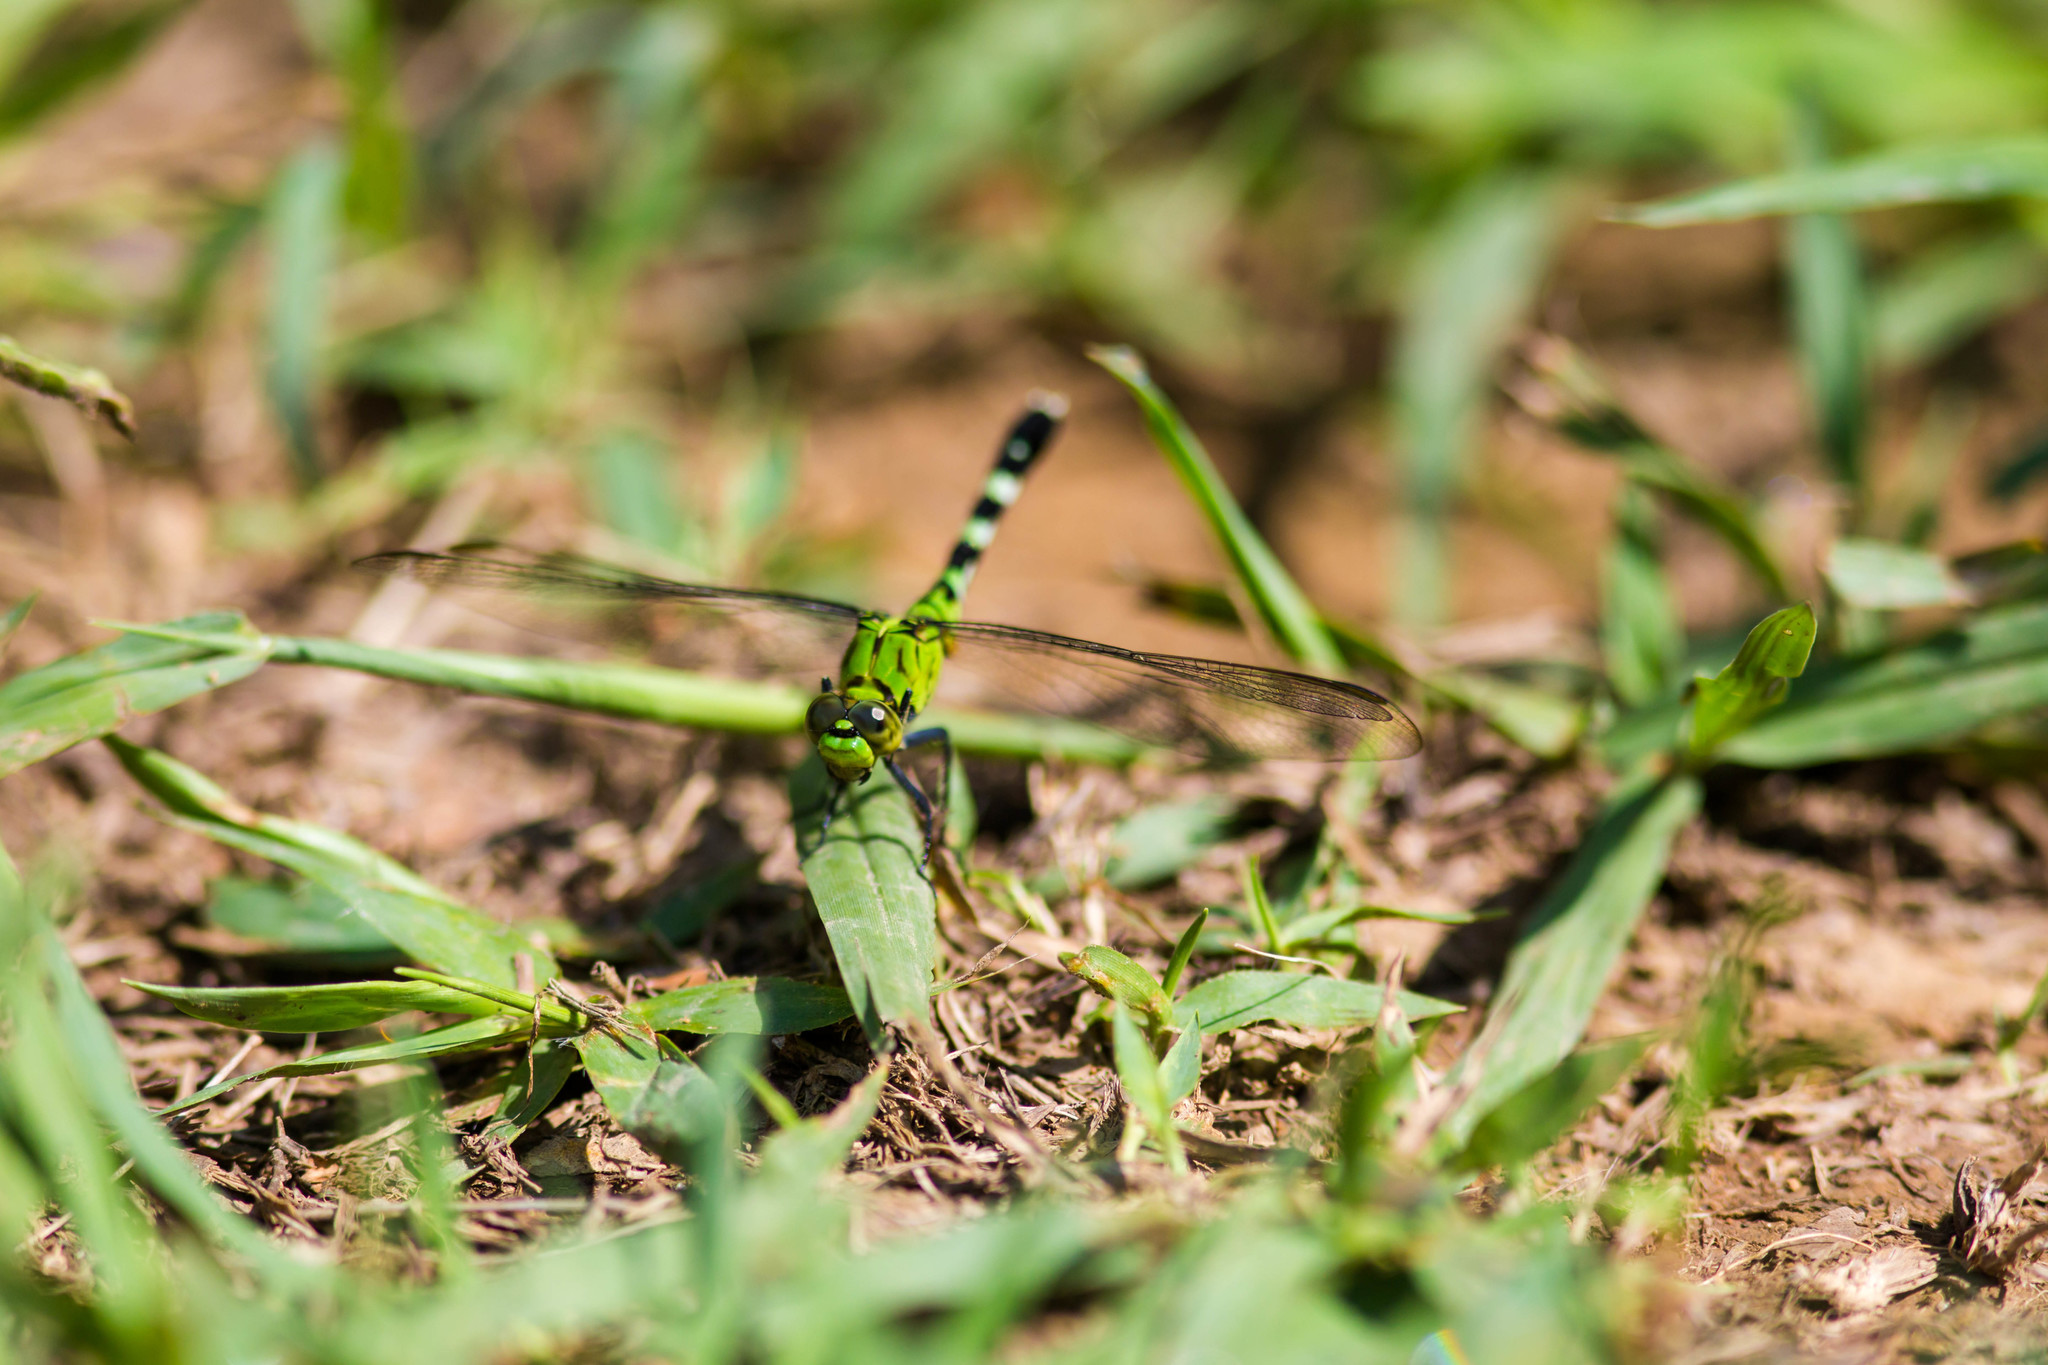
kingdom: Animalia
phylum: Arthropoda
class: Insecta
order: Odonata
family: Libellulidae
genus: Erythemis
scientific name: Erythemis simplicicollis
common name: Eastern pondhawk
